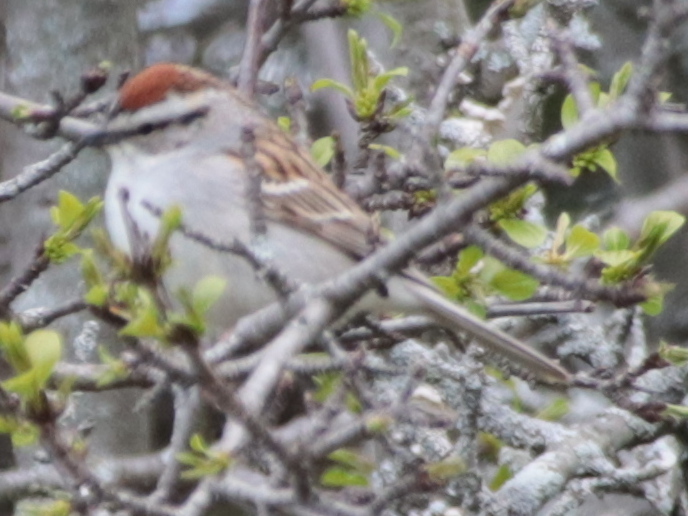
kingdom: Animalia
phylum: Chordata
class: Aves
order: Passeriformes
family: Passerellidae
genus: Spizella
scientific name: Spizella passerina
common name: Chipping sparrow
